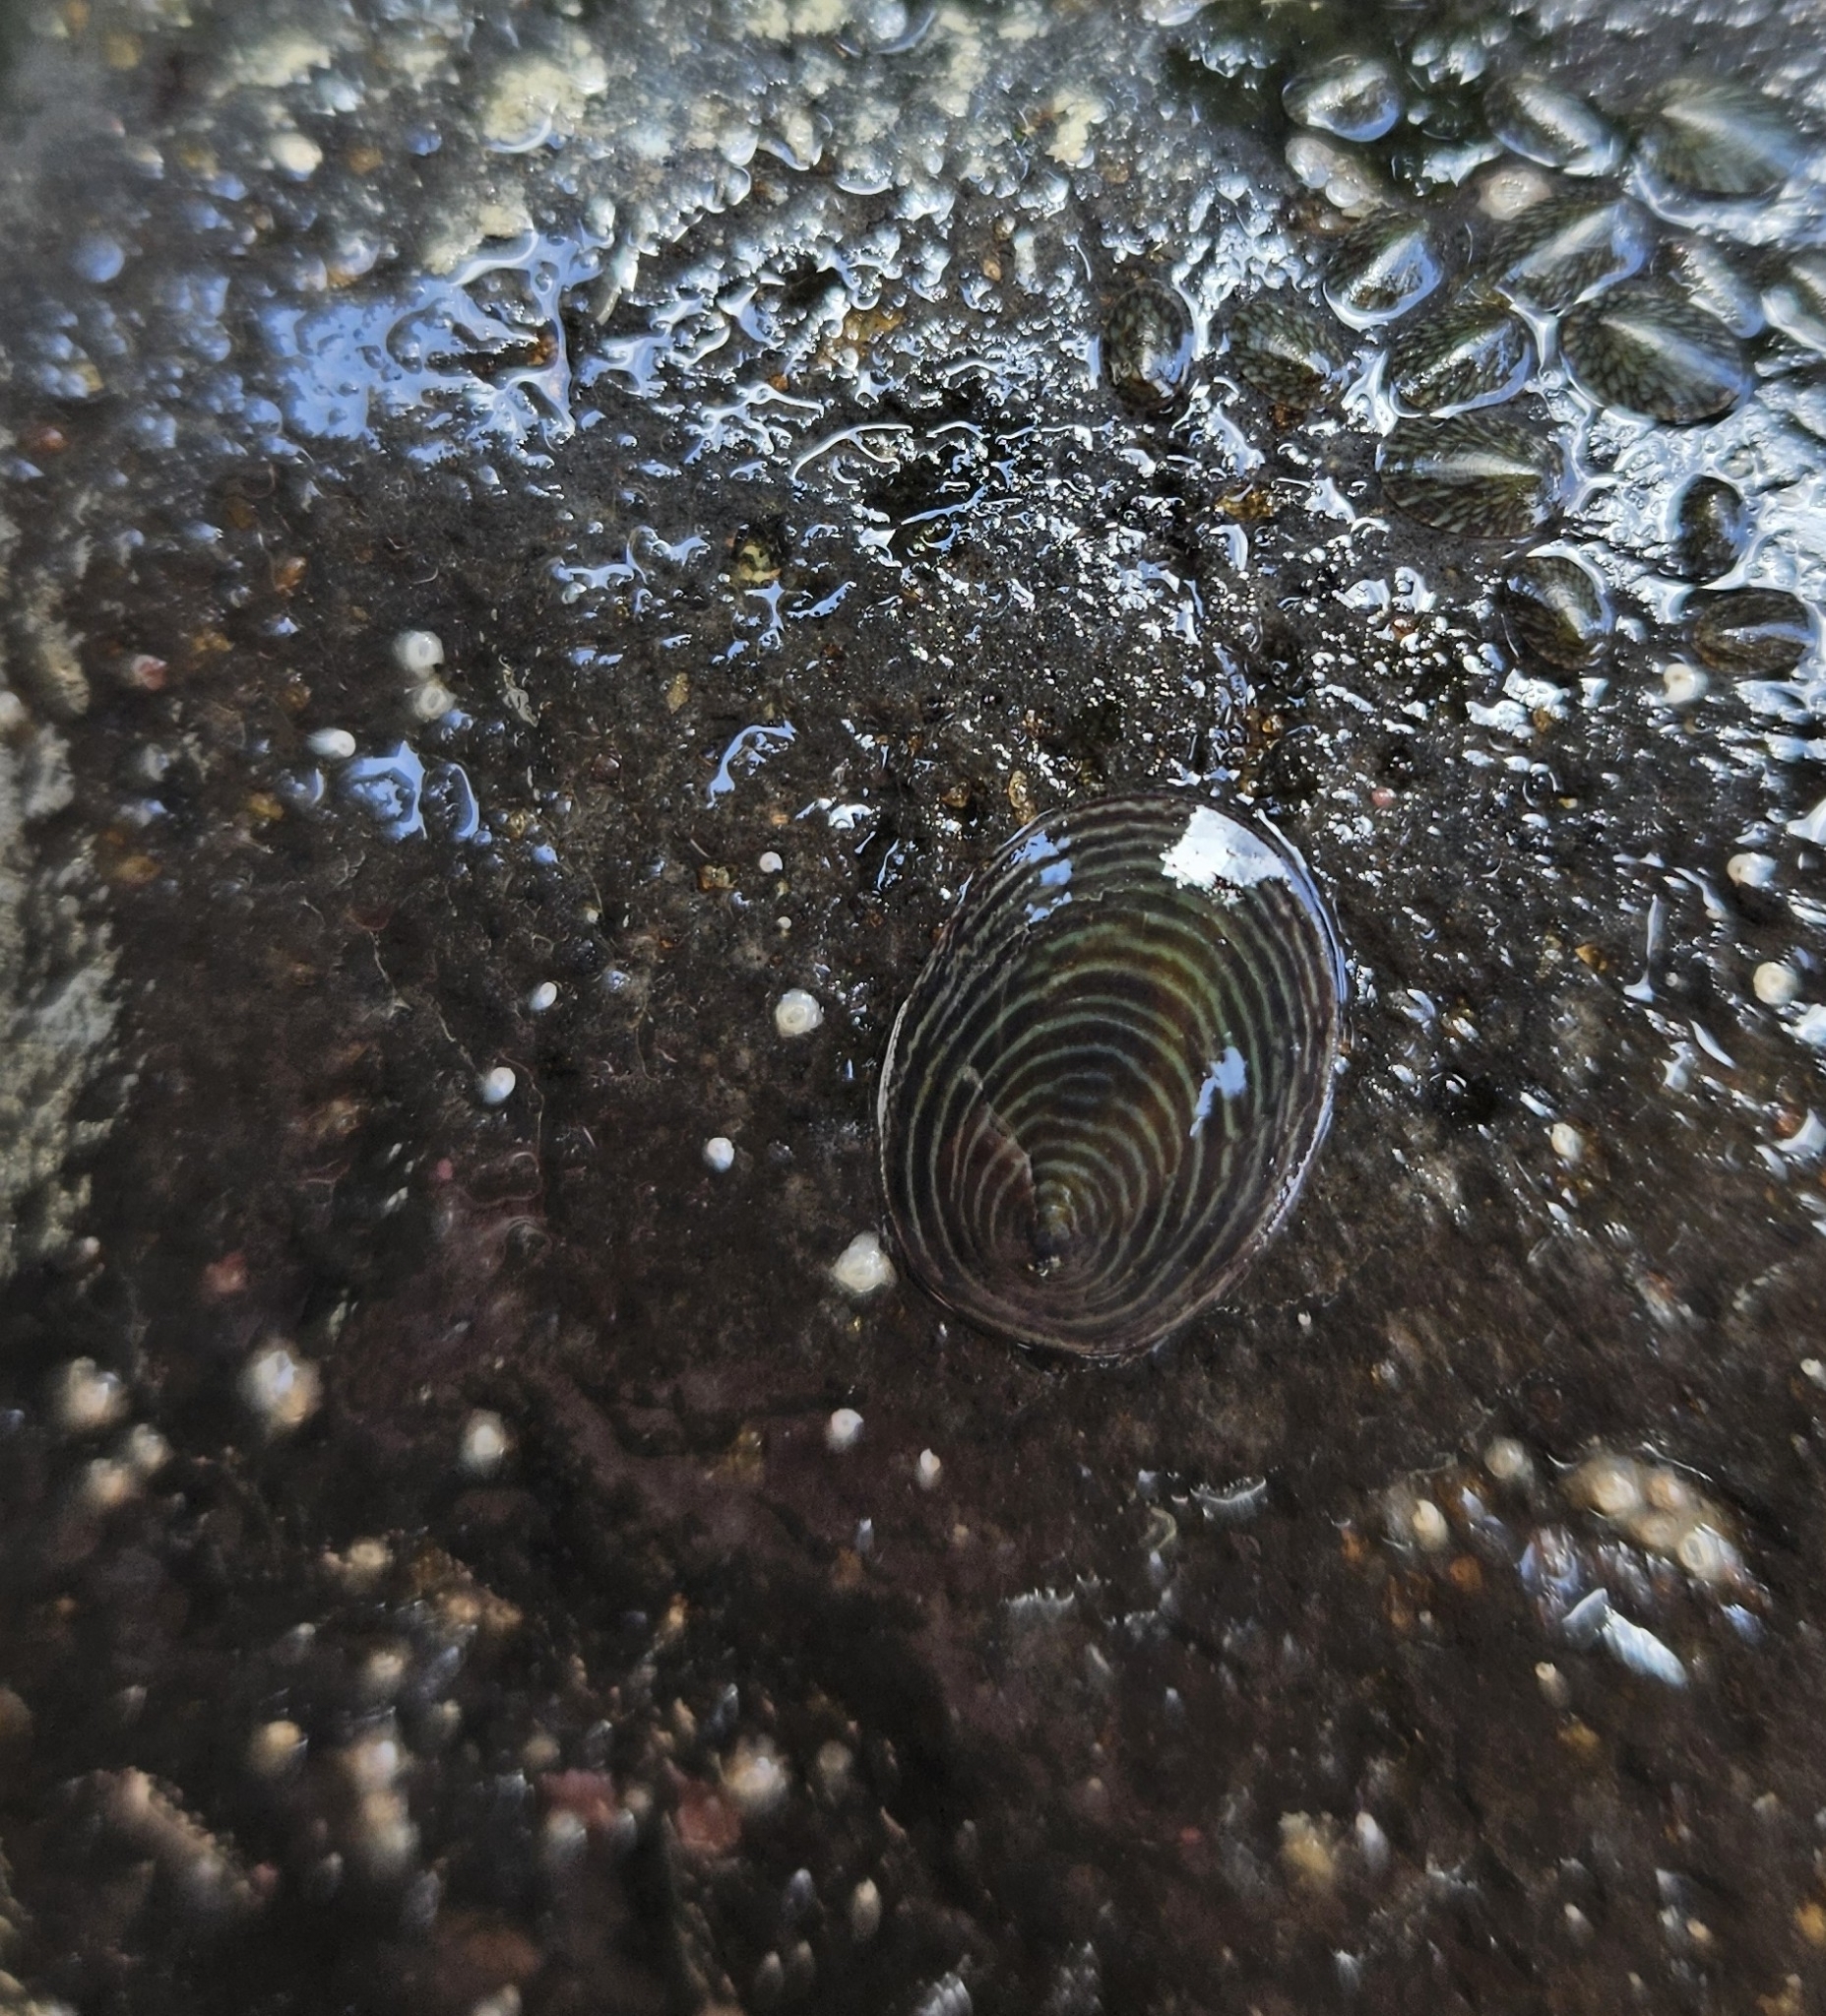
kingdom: Animalia
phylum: Mollusca
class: Gastropoda
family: Lottiidae
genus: Atalacmea
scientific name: Atalacmea fragilis
